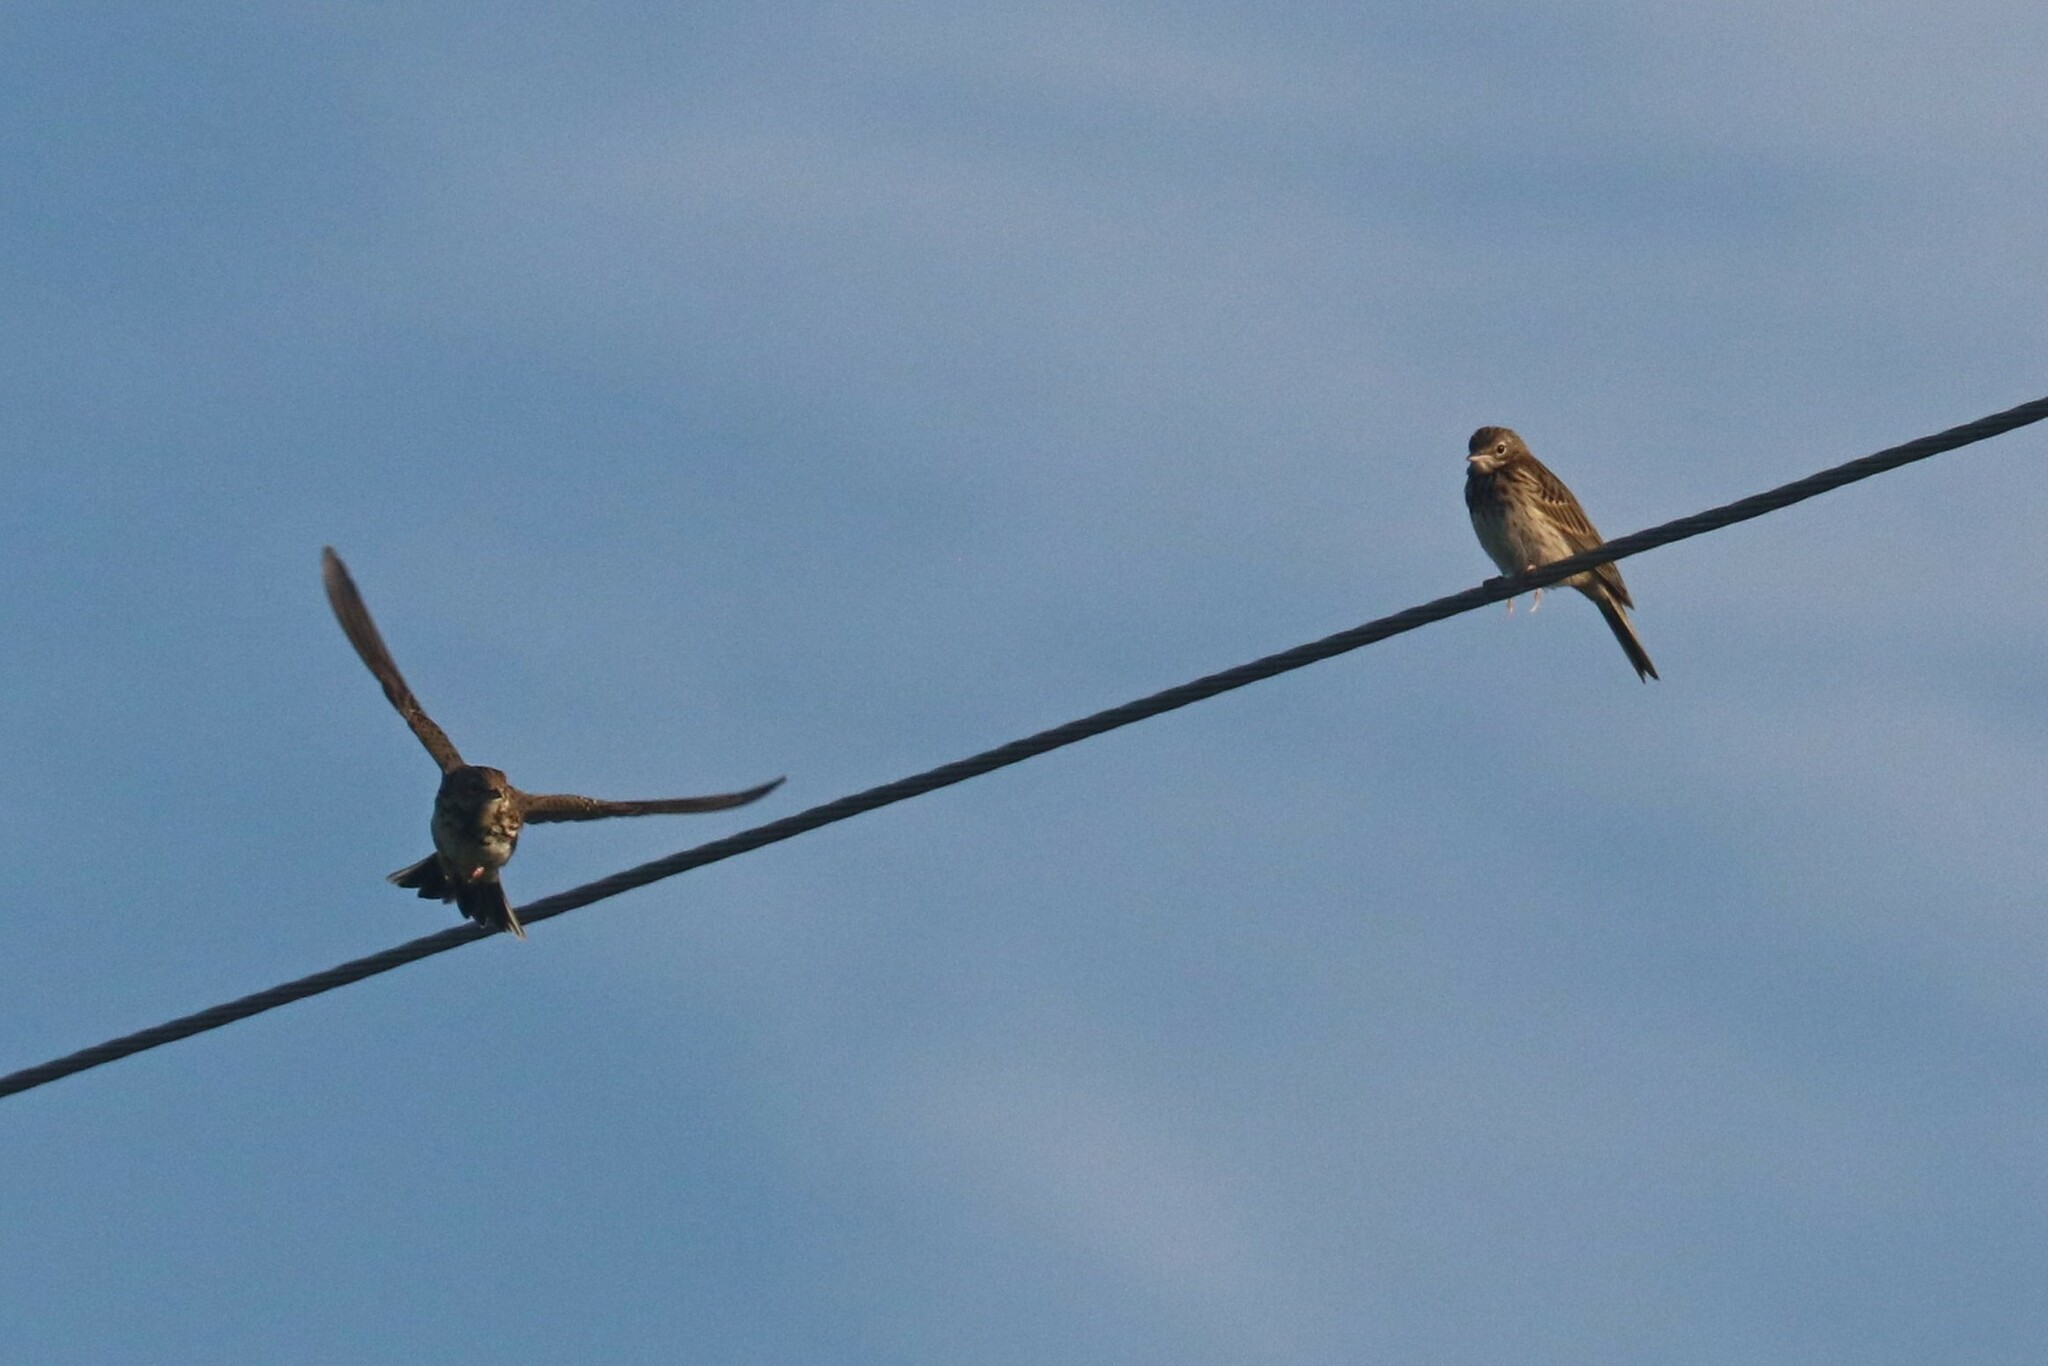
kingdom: Animalia
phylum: Chordata
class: Aves
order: Passeriformes
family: Motacillidae
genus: Anthus
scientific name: Anthus trivialis
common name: Tree pipit
